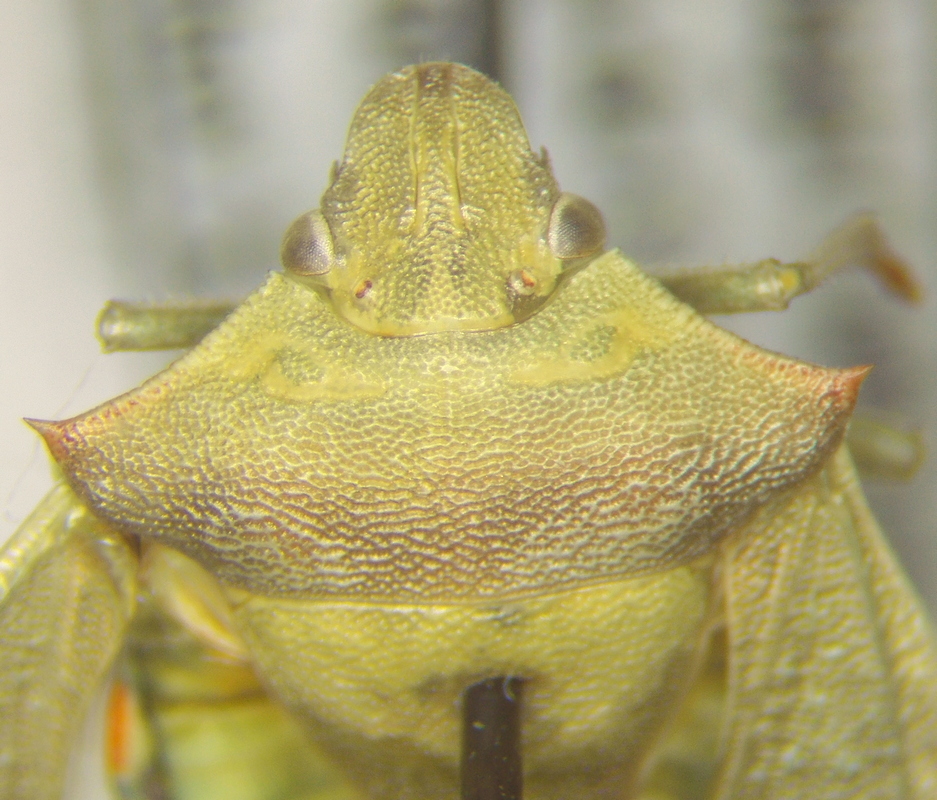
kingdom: Animalia
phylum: Arthropoda
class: Insecta
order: Hemiptera
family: Pentatomidae
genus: Thyanta
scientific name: Thyanta custator
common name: Stink bug
